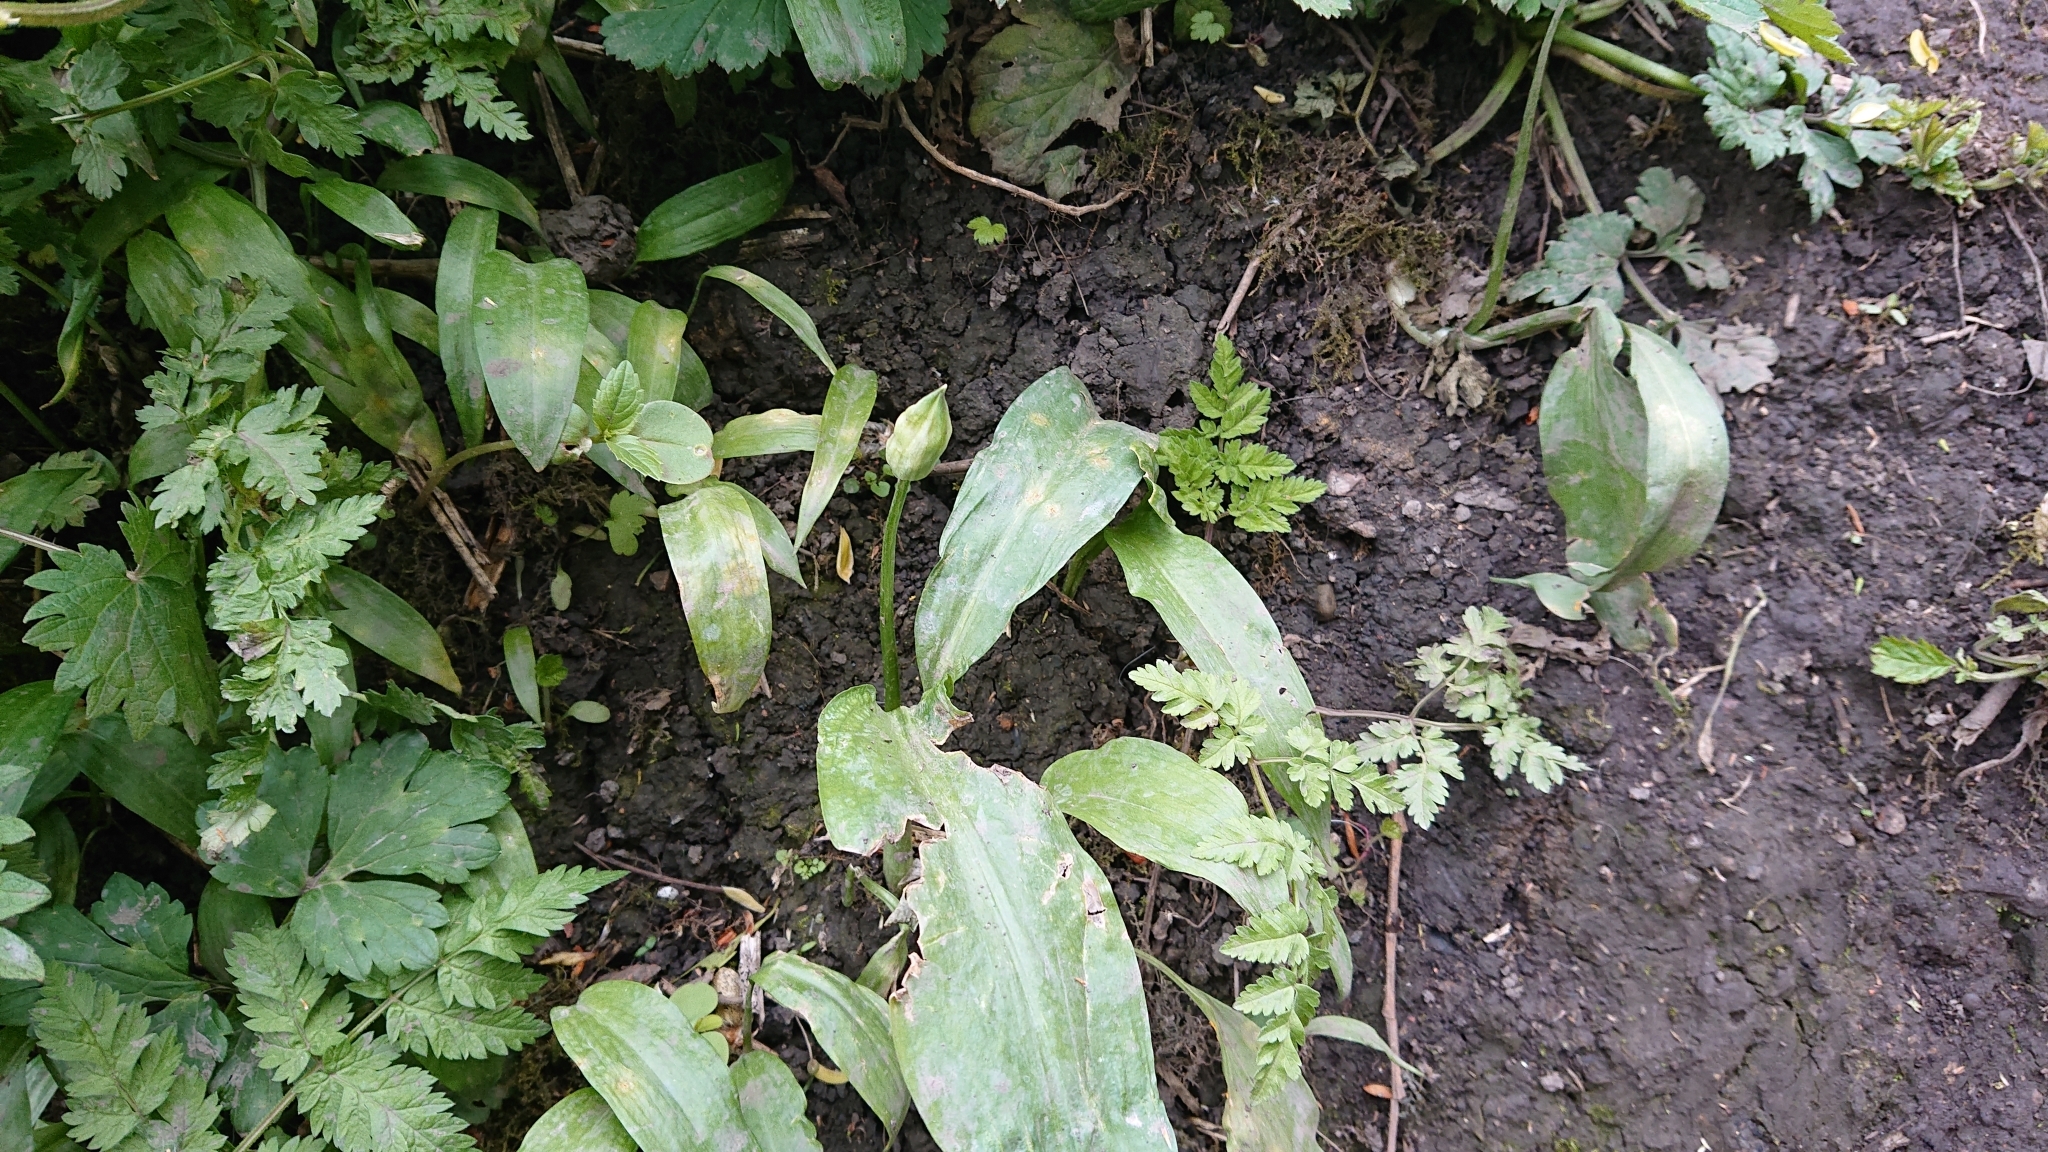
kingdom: Plantae
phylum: Tracheophyta
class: Liliopsida
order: Asparagales
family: Amaryllidaceae
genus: Allium
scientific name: Allium ursinum
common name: Ramsons
